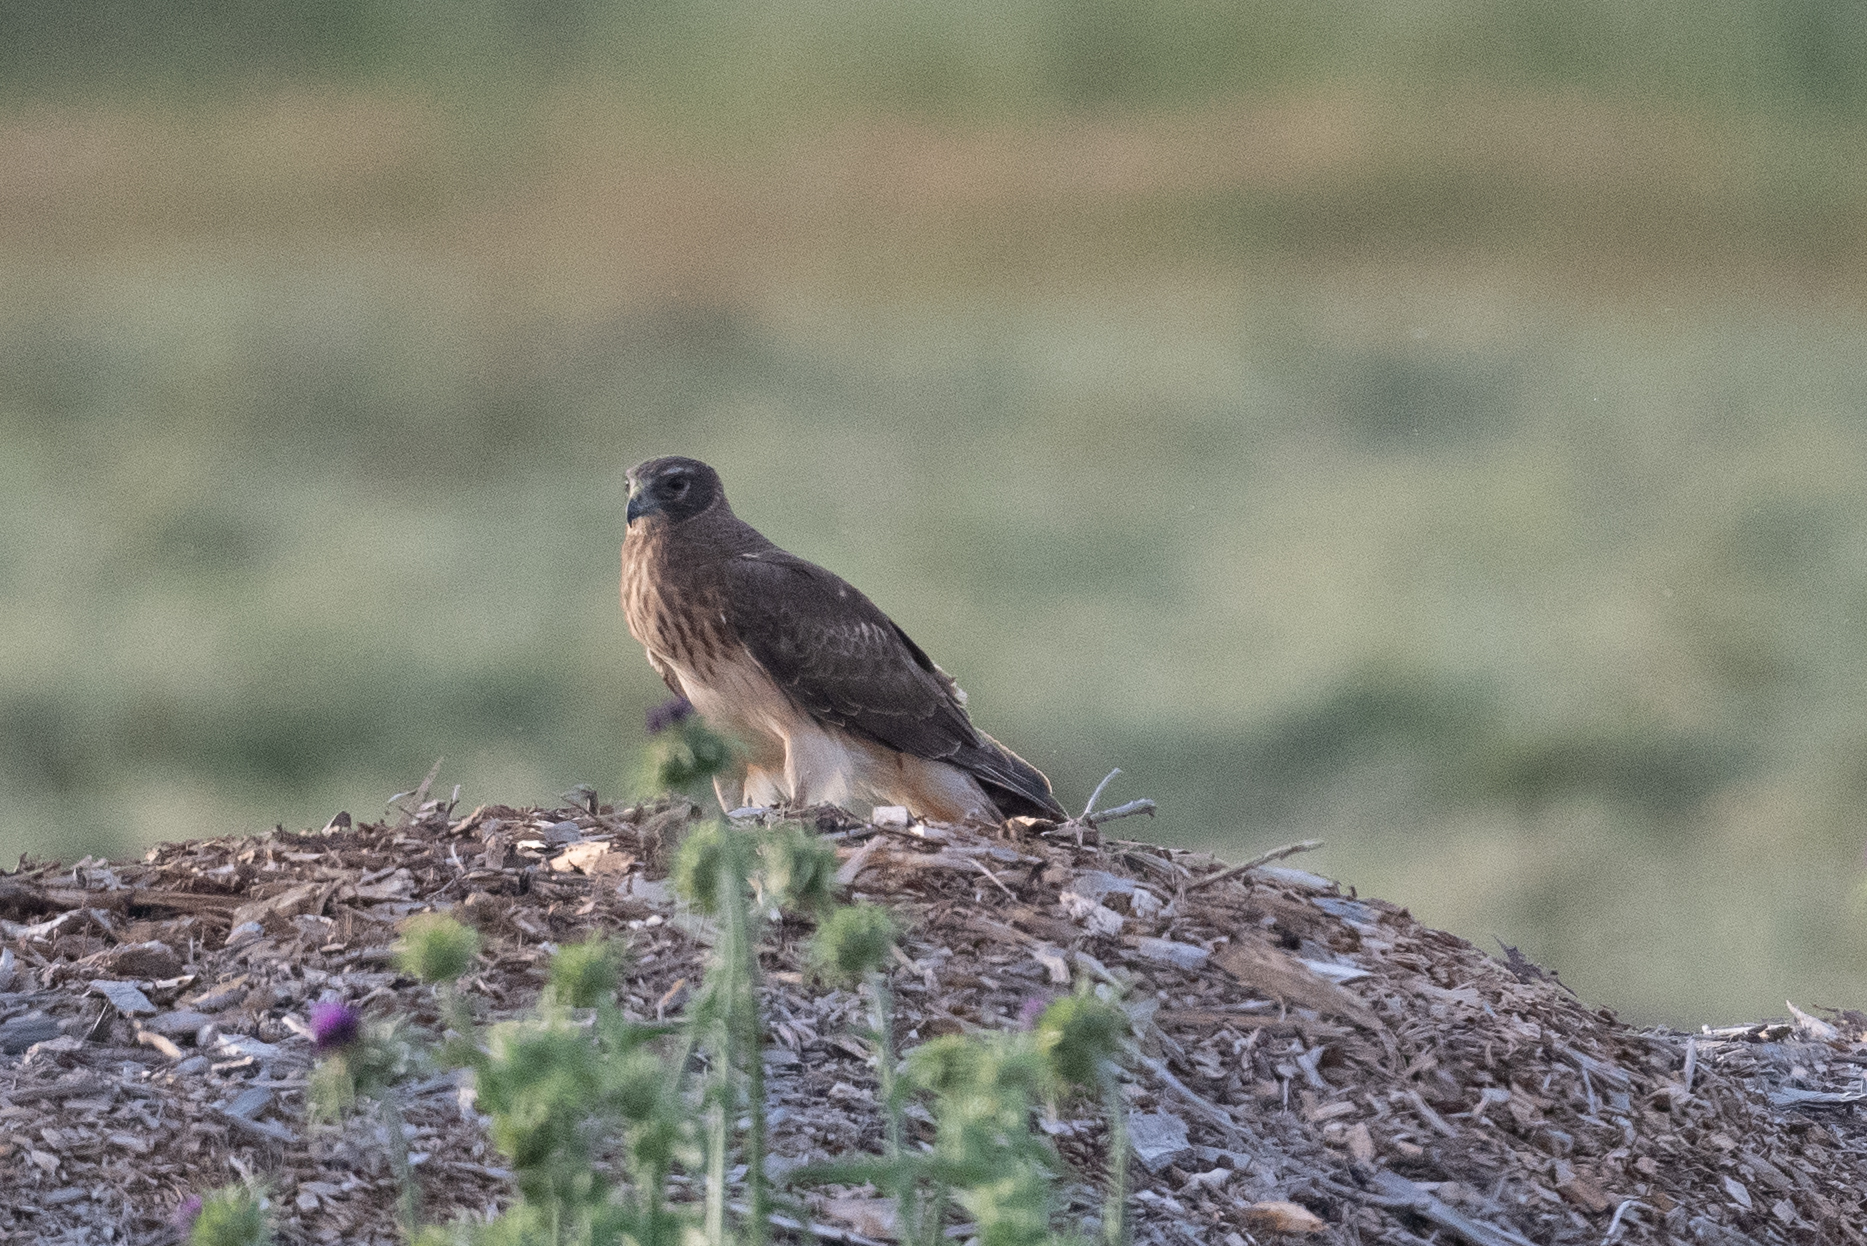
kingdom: Animalia
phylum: Chordata
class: Aves
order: Accipitriformes
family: Accipitridae
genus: Circus
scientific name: Circus cyaneus
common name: Hen harrier
